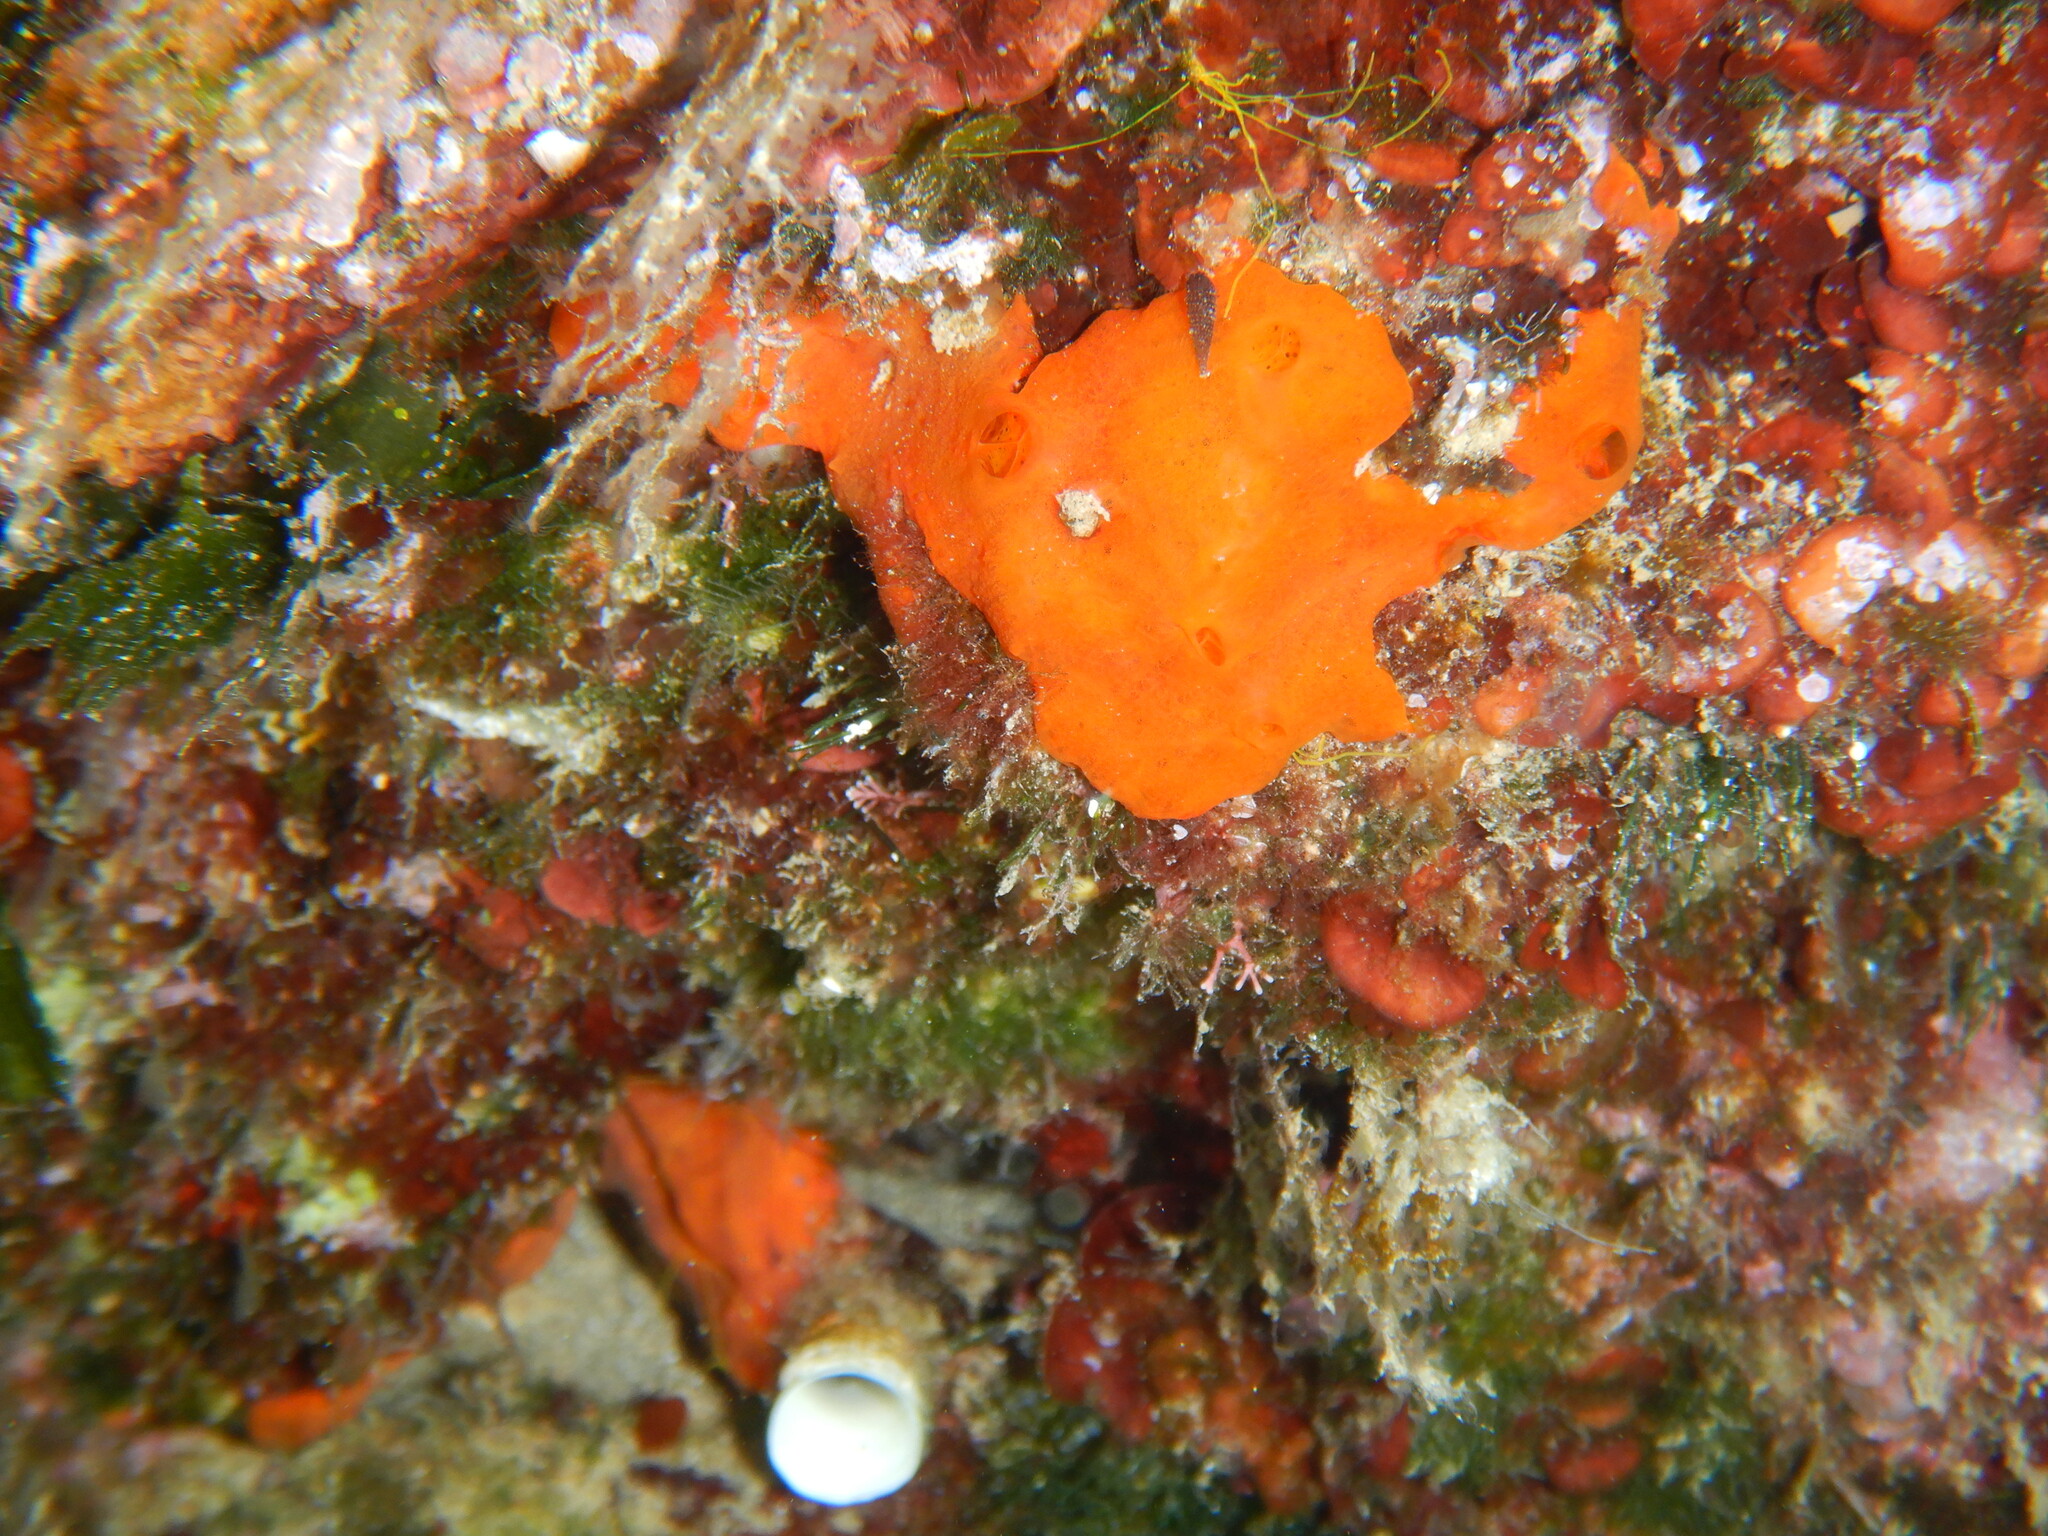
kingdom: Animalia
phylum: Porifera
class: Demospongiae
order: Poecilosclerida
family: Crambeidae
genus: Crambe
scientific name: Crambe crambe
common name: Orange-red encrusting sponge
